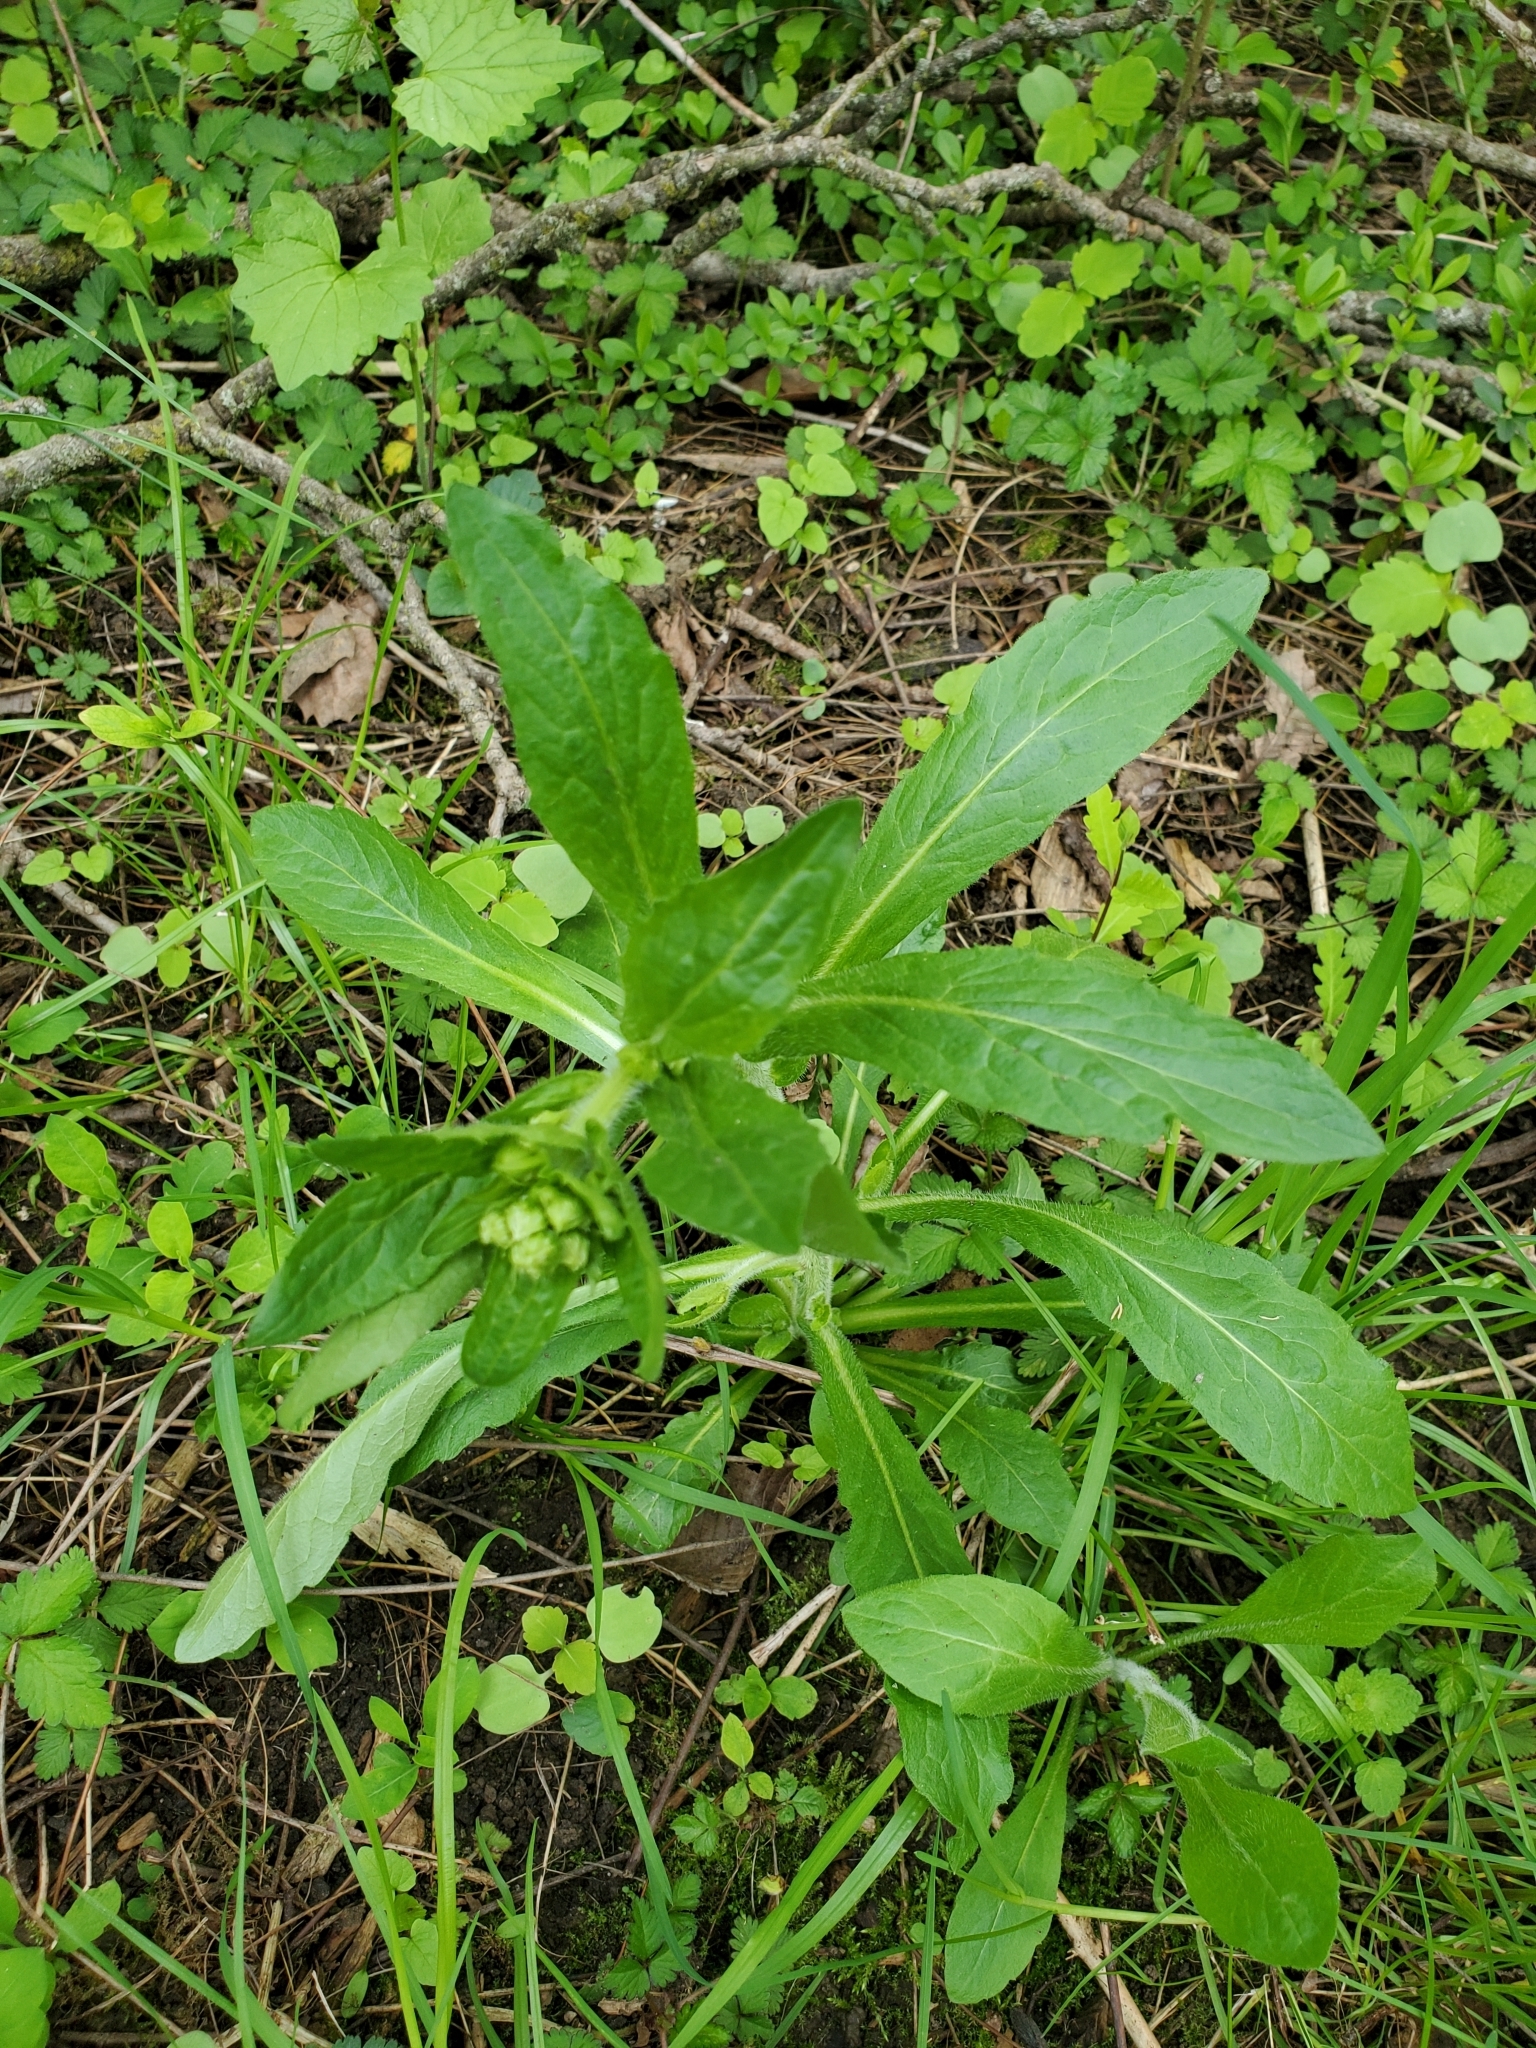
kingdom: Plantae
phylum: Tracheophyta
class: Magnoliopsida
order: Asterales
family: Asteraceae
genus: Erigeron
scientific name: Erigeron philadelphicus
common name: Robin's-plantain
